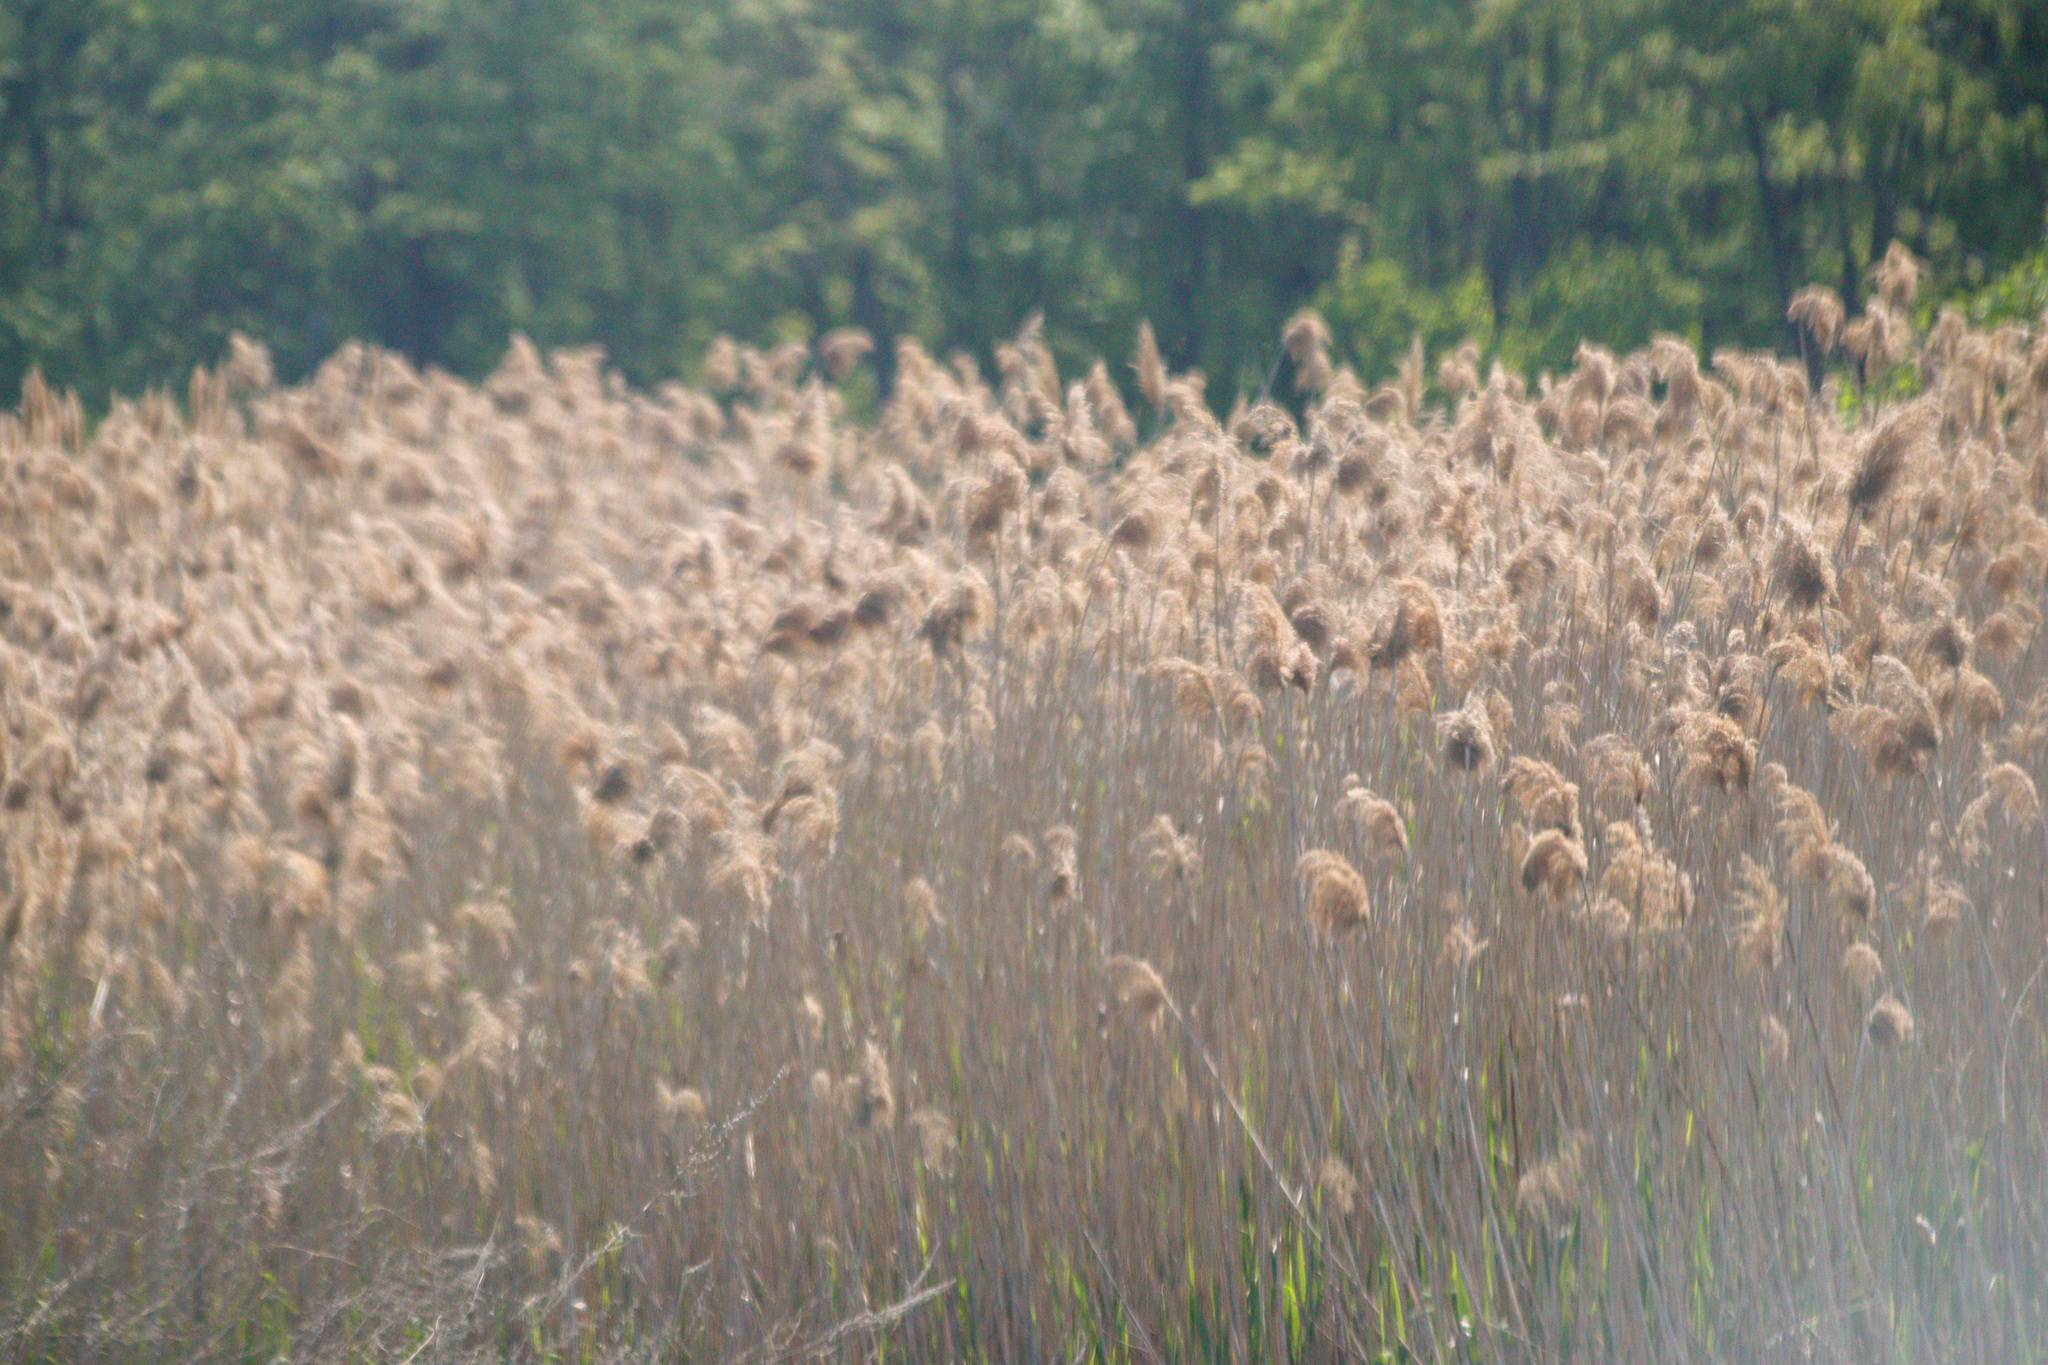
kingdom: Plantae
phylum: Tracheophyta
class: Liliopsida
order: Poales
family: Poaceae
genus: Phragmites
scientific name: Phragmites australis
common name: Common reed
